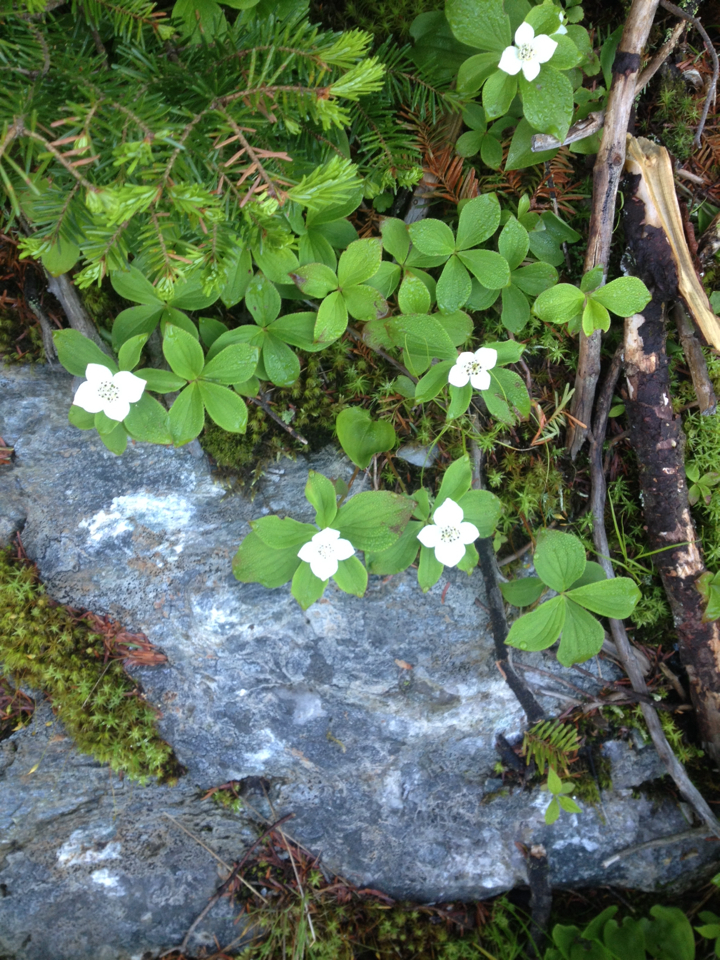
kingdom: Plantae
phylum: Tracheophyta
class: Magnoliopsida
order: Cornales
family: Cornaceae
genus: Cornus
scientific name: Cornus canadensis
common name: Creeping dogwood
